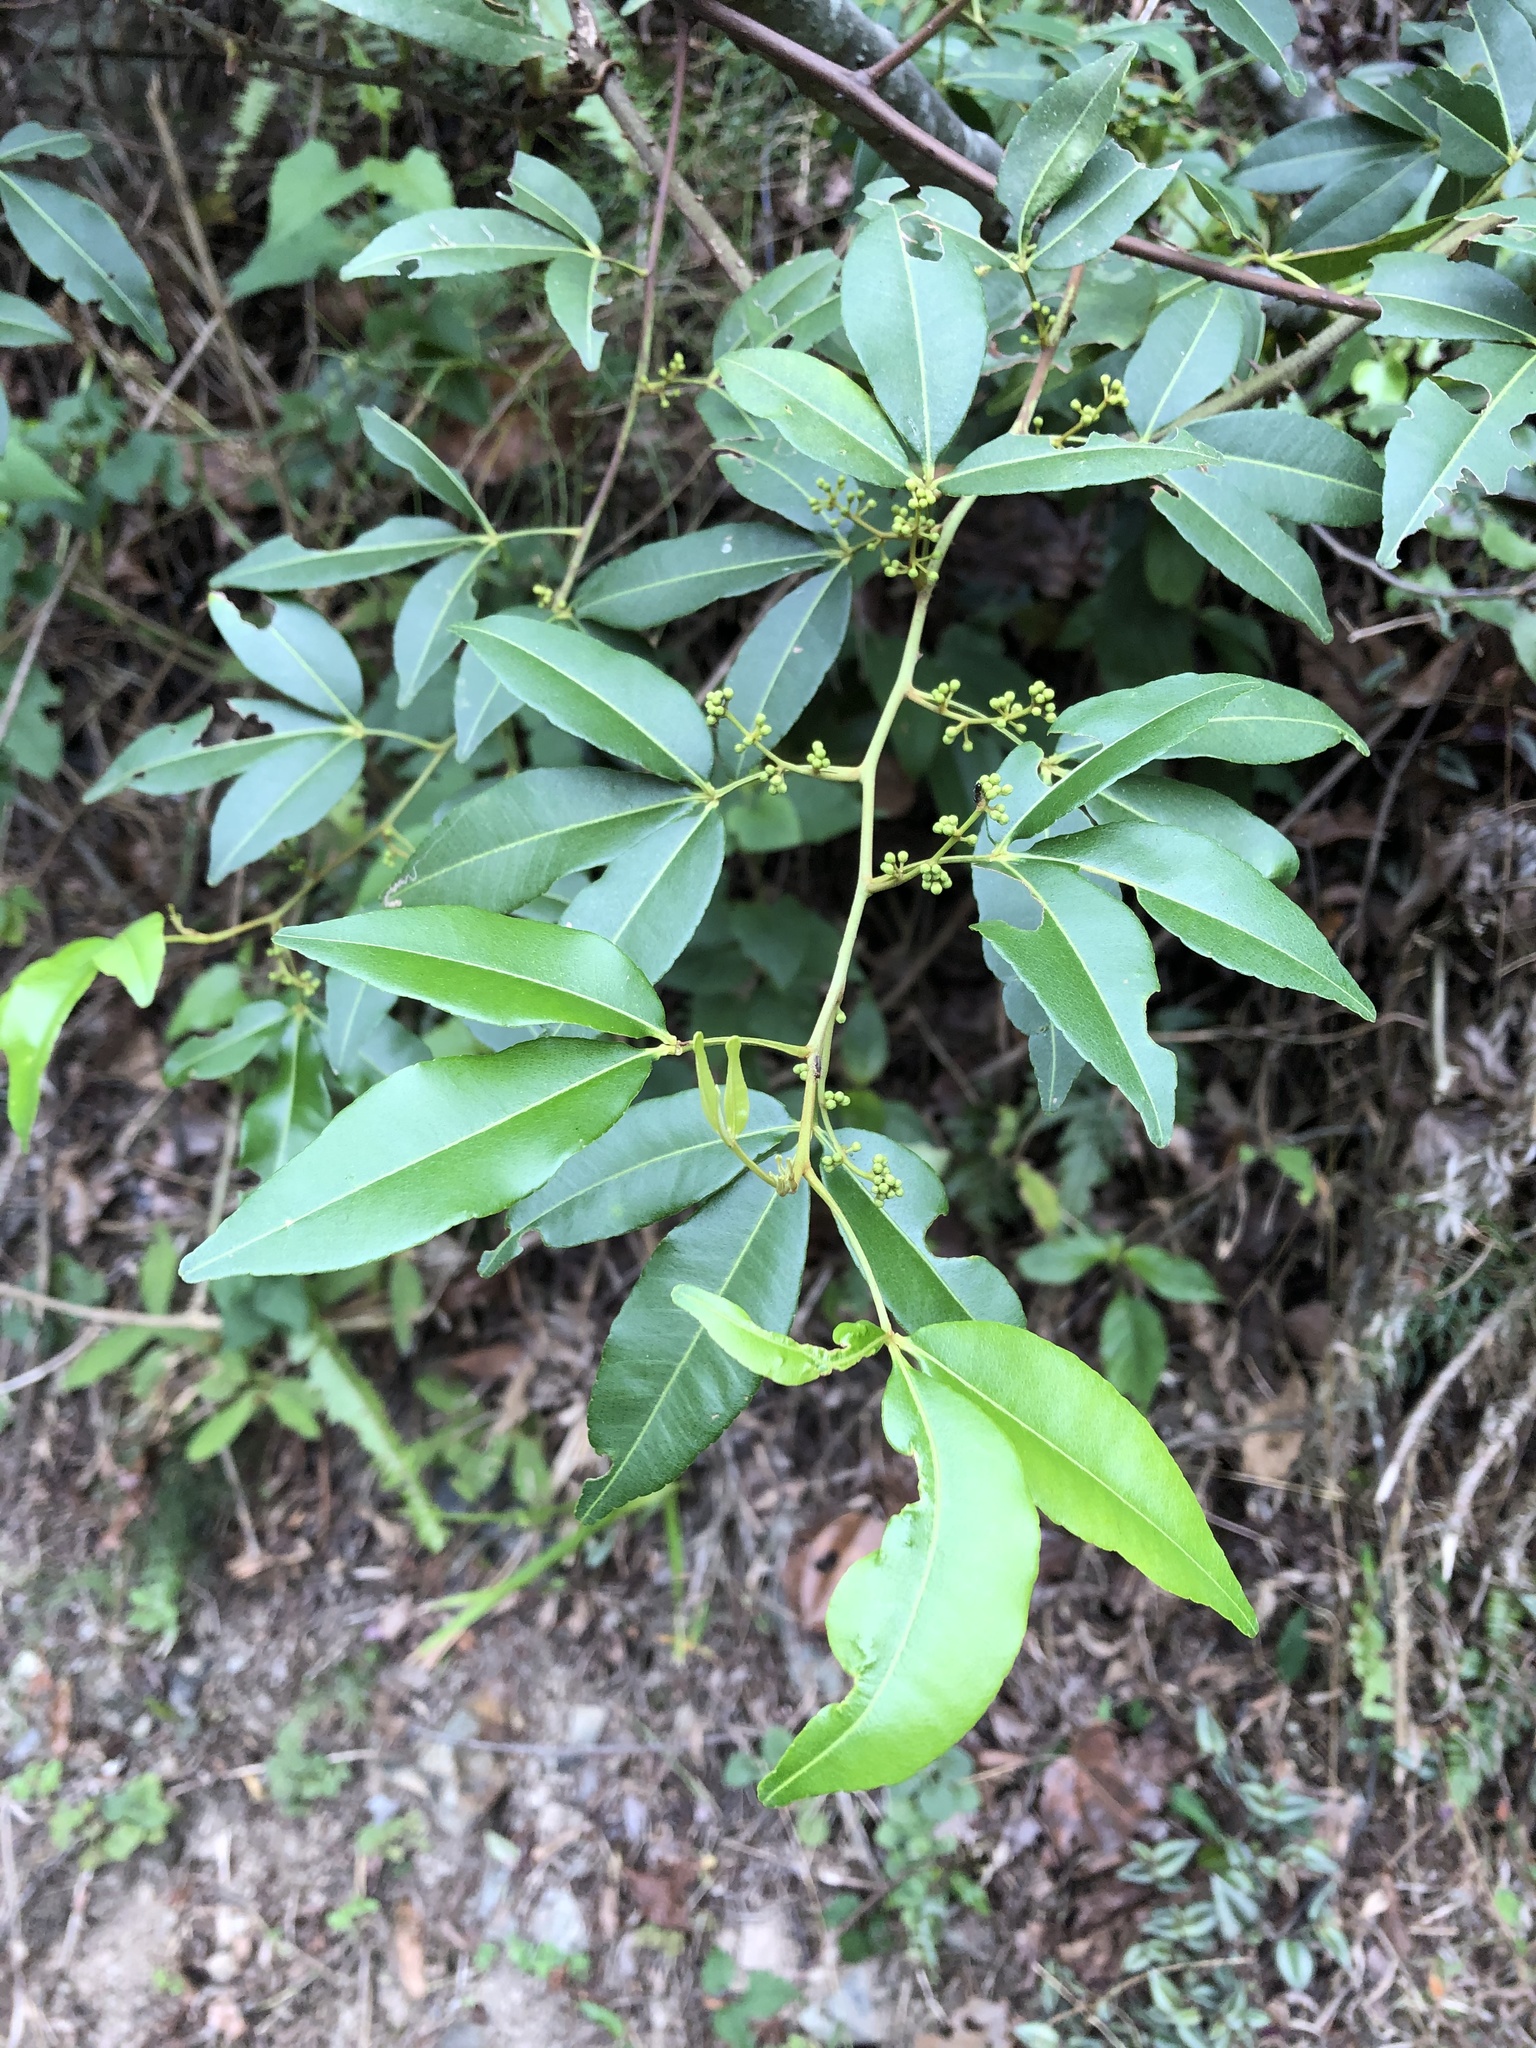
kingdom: Plantae
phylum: Tracheophyta
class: Magnoliopsida
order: Sapindales
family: Rutaceae
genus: Zanthoxylum
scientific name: Zanthoxylum asiaticum
